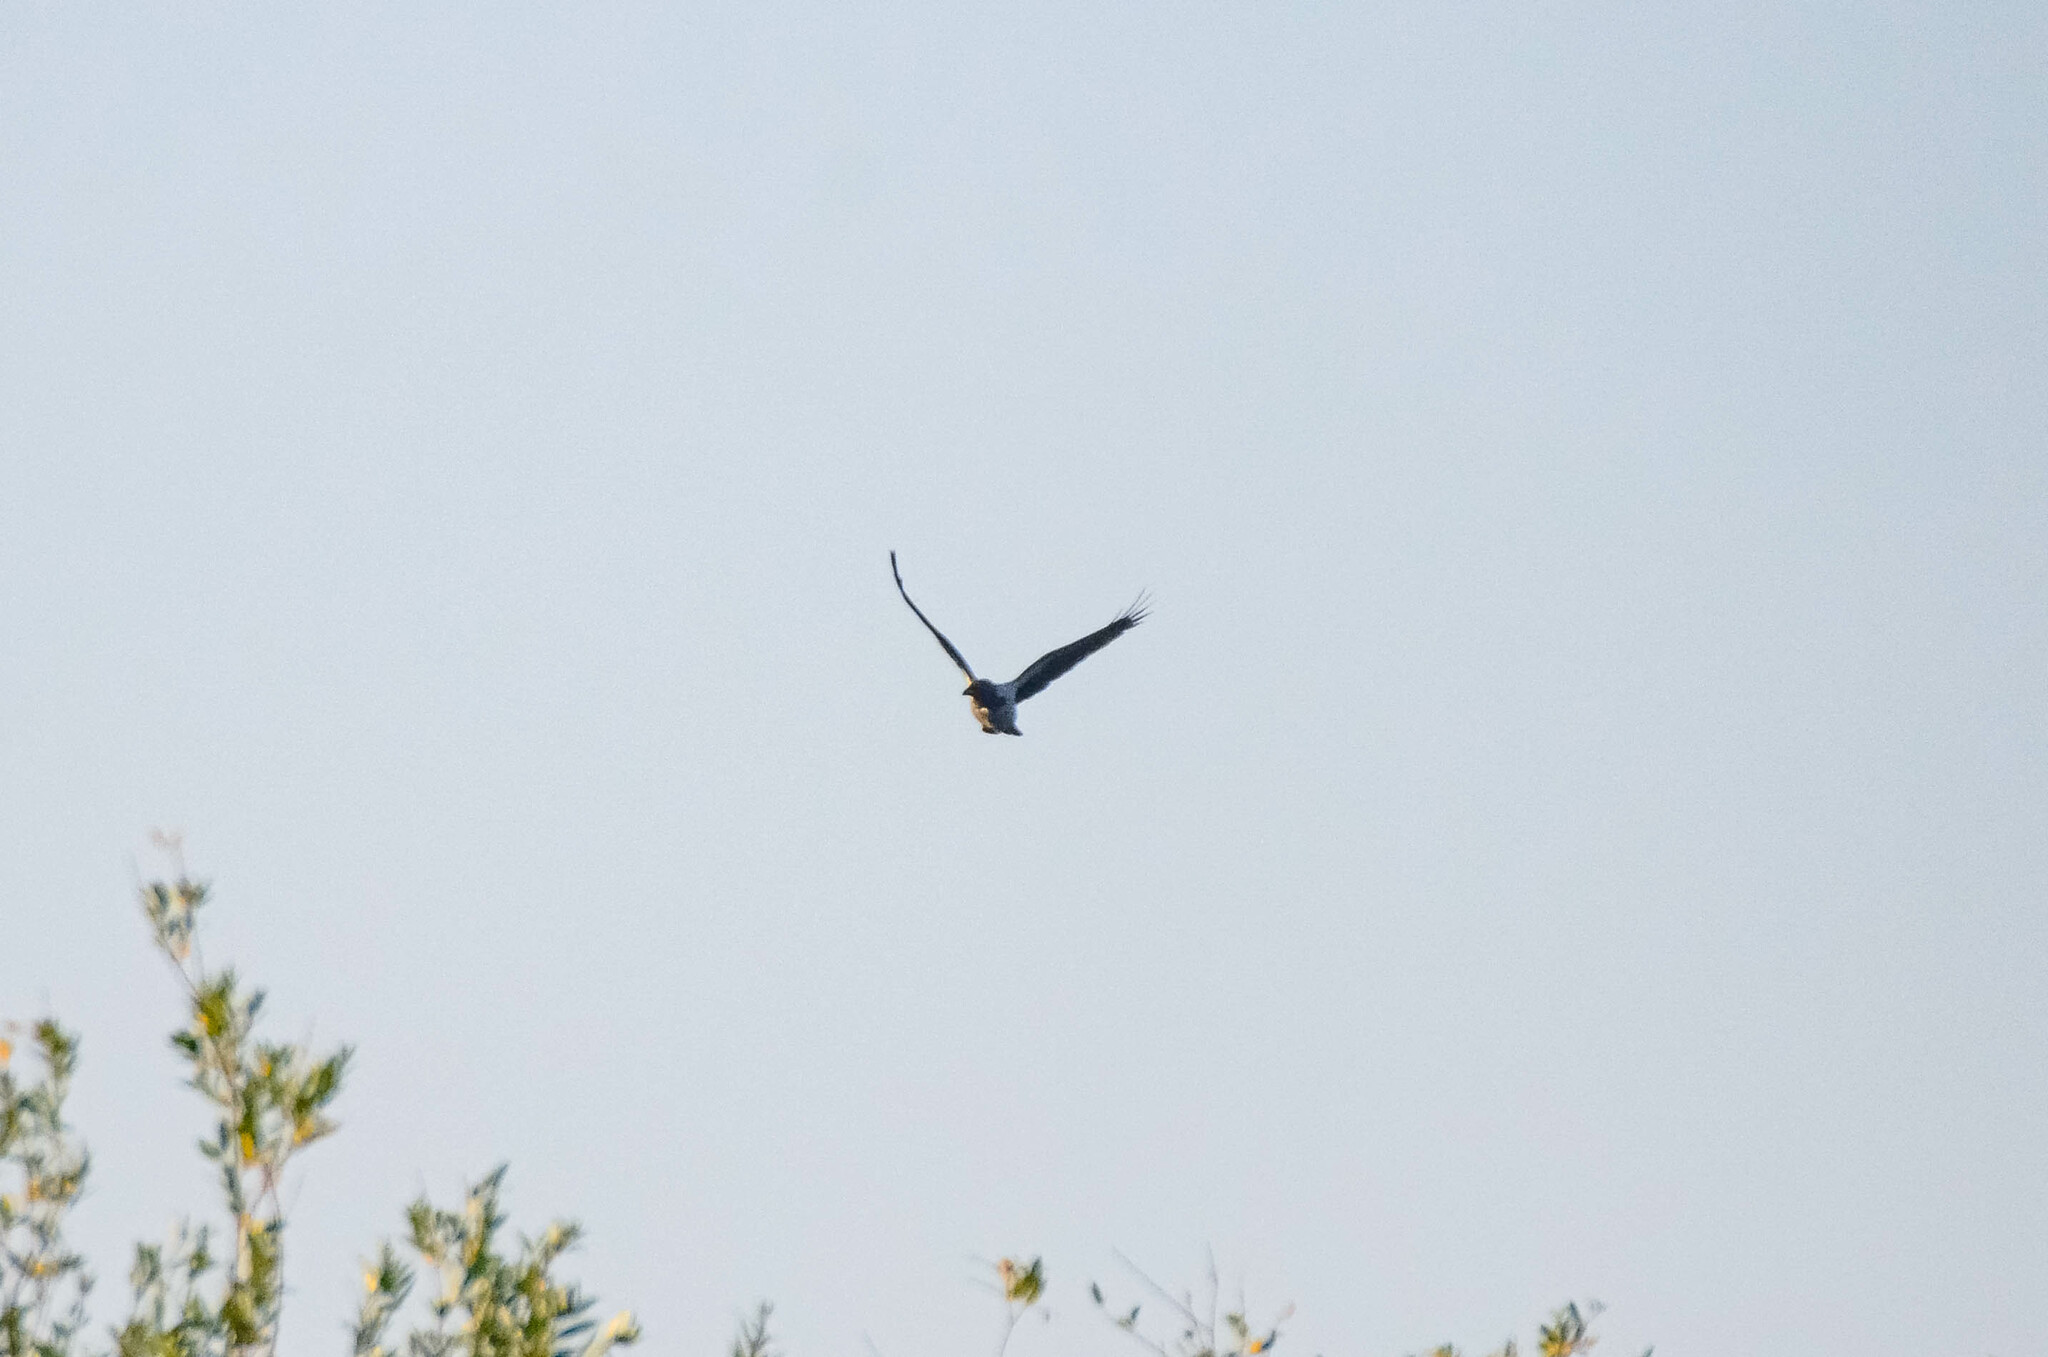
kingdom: Animalia
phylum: Chordata
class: Aves
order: Passeriformes
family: Corvidae
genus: Corvus
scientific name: Corvus cornix
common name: Hooded crow
